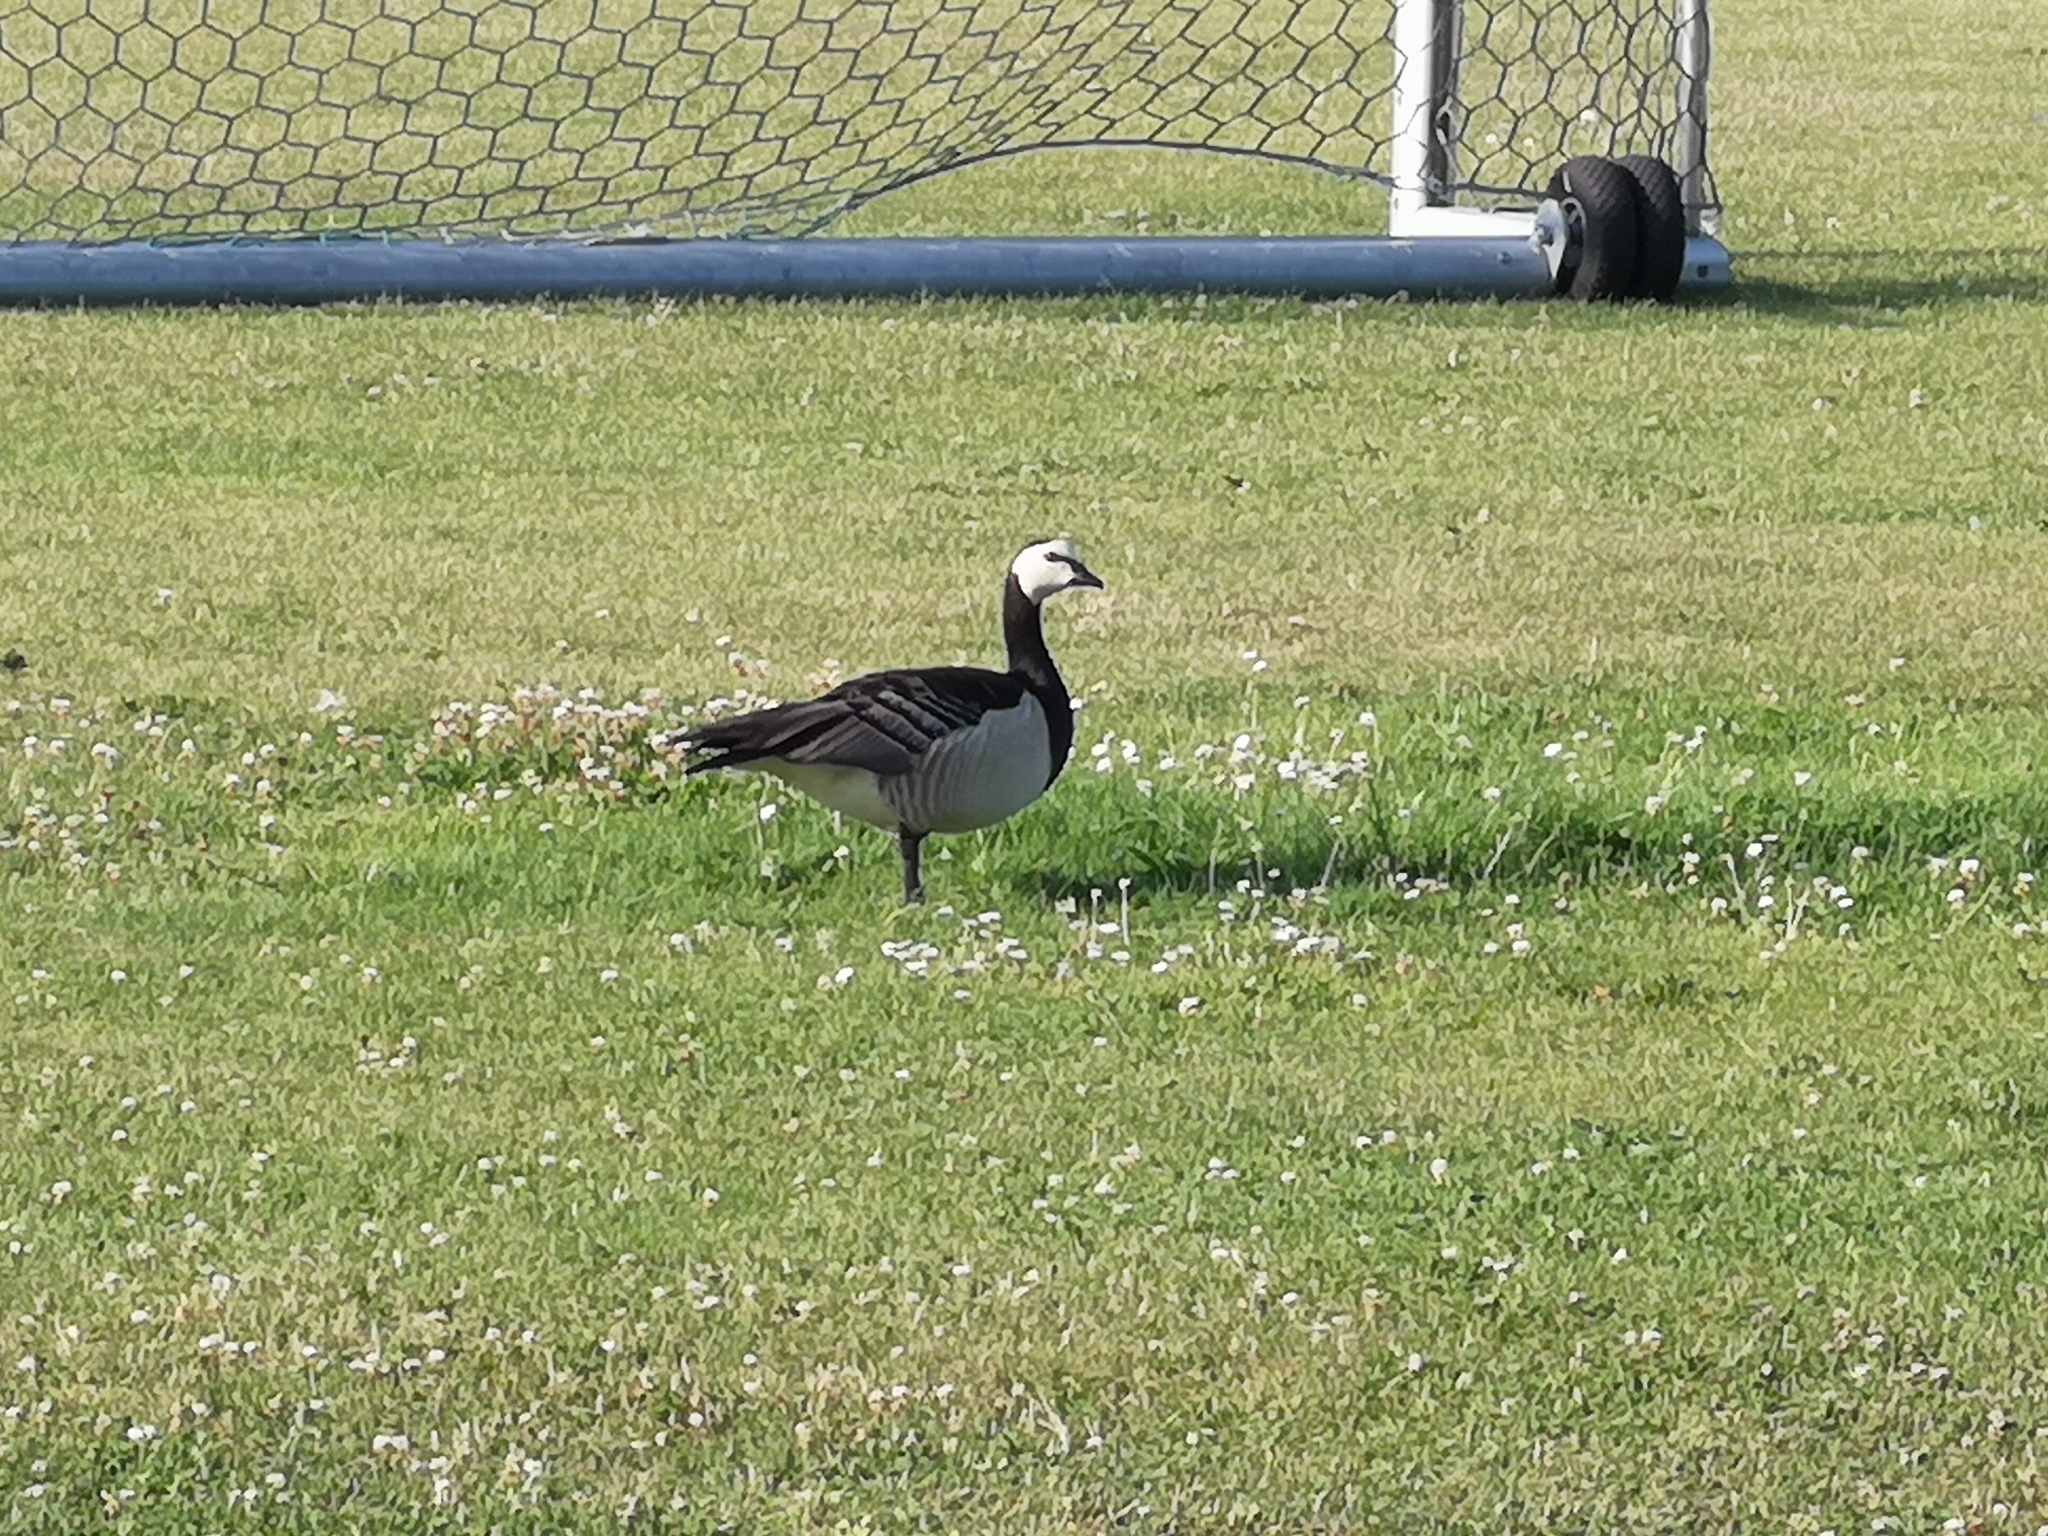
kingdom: Animalia
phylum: Chordata
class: Aves
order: Anseriformes
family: Anatidae
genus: Branta
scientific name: Branta leucopsis
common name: Barnacle goose
